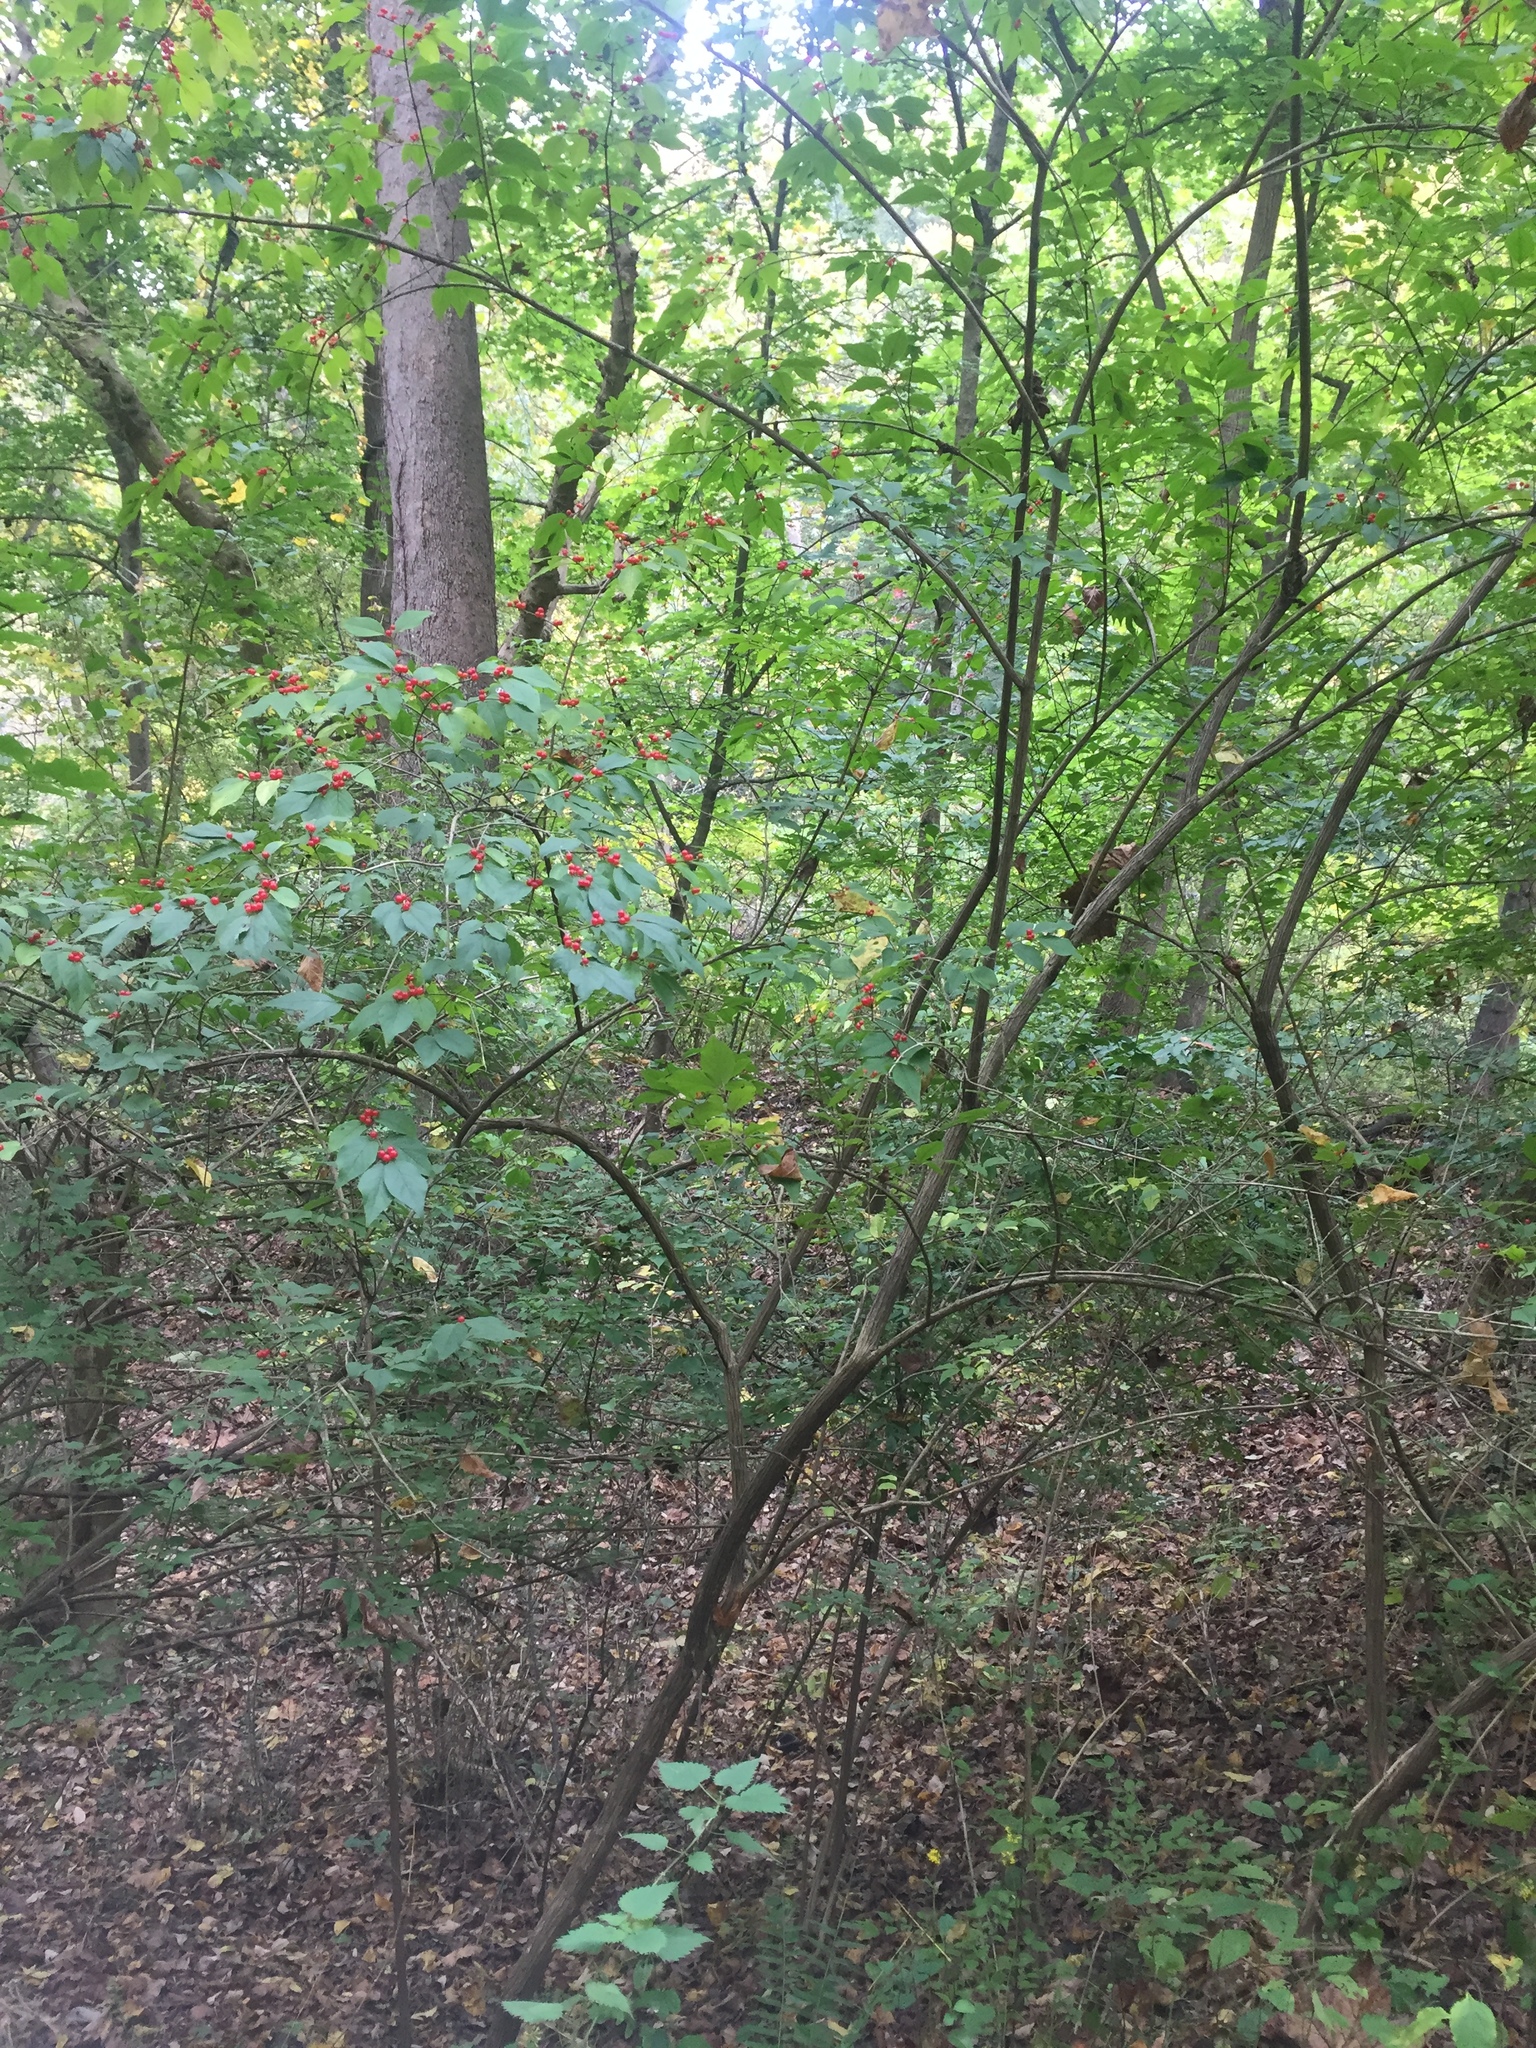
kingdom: Plantae
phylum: Tracheophyta
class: Magnoliopsida
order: Dipsacales
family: Caprifoliaceae
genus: Lonicera
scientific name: Lonicera maackii
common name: Amur honeysuckle
